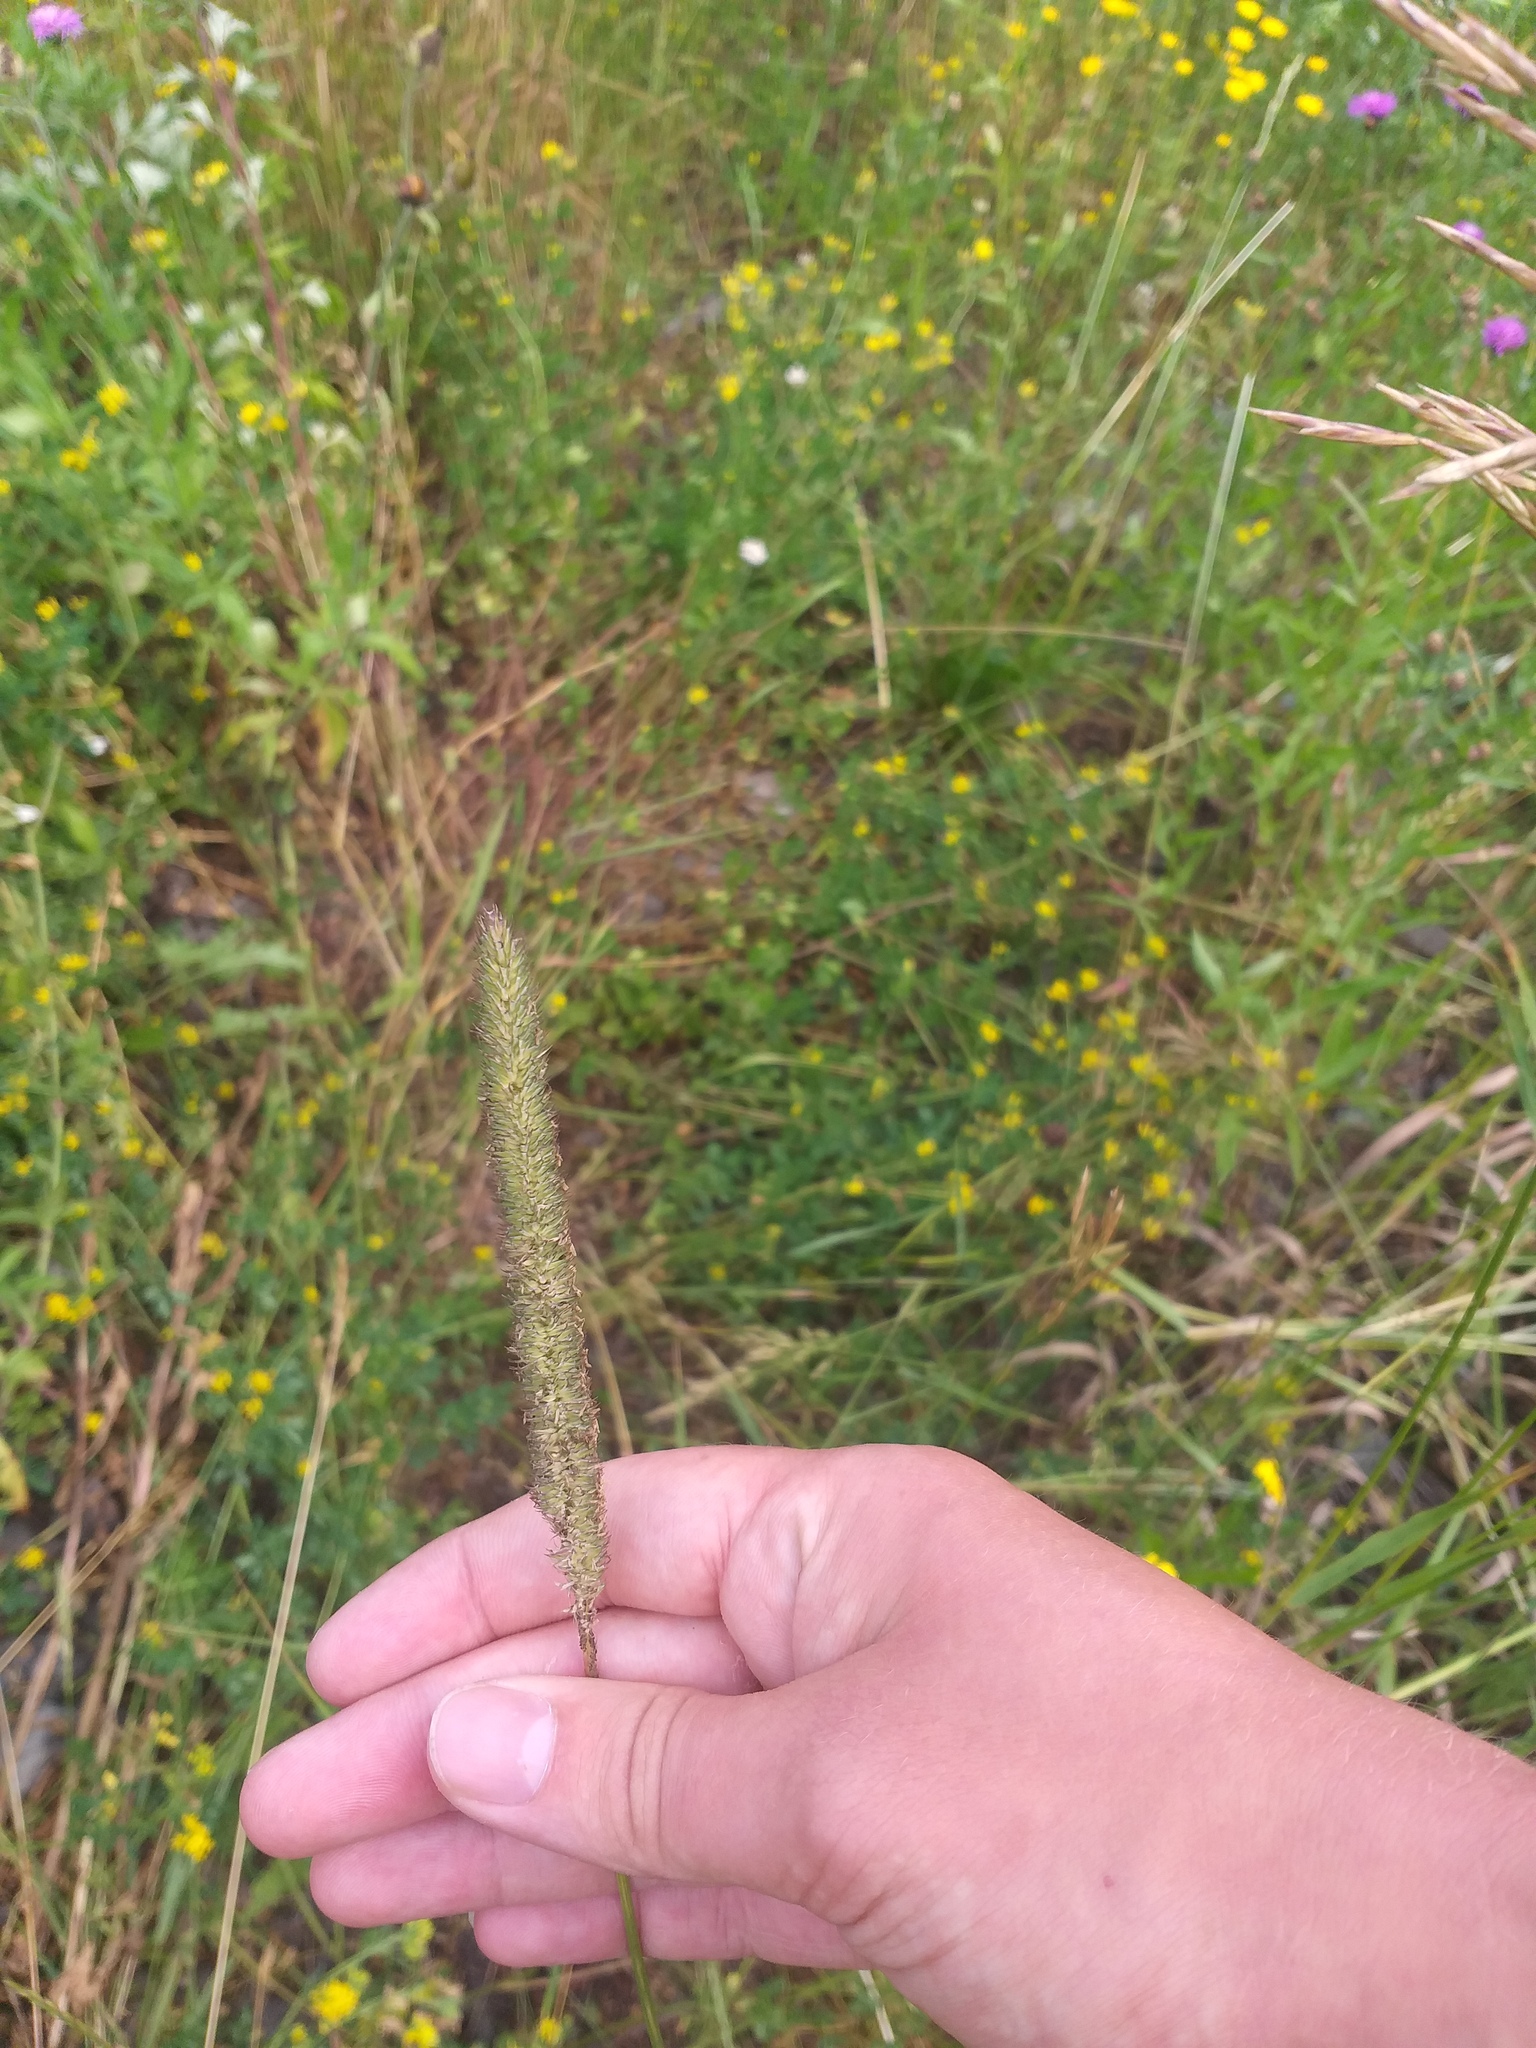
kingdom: Plantae
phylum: Tracheophyta
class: Liliopsida
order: Poales
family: Poaceae
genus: Phleum
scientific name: Phleum pratense
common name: Timothy grass
